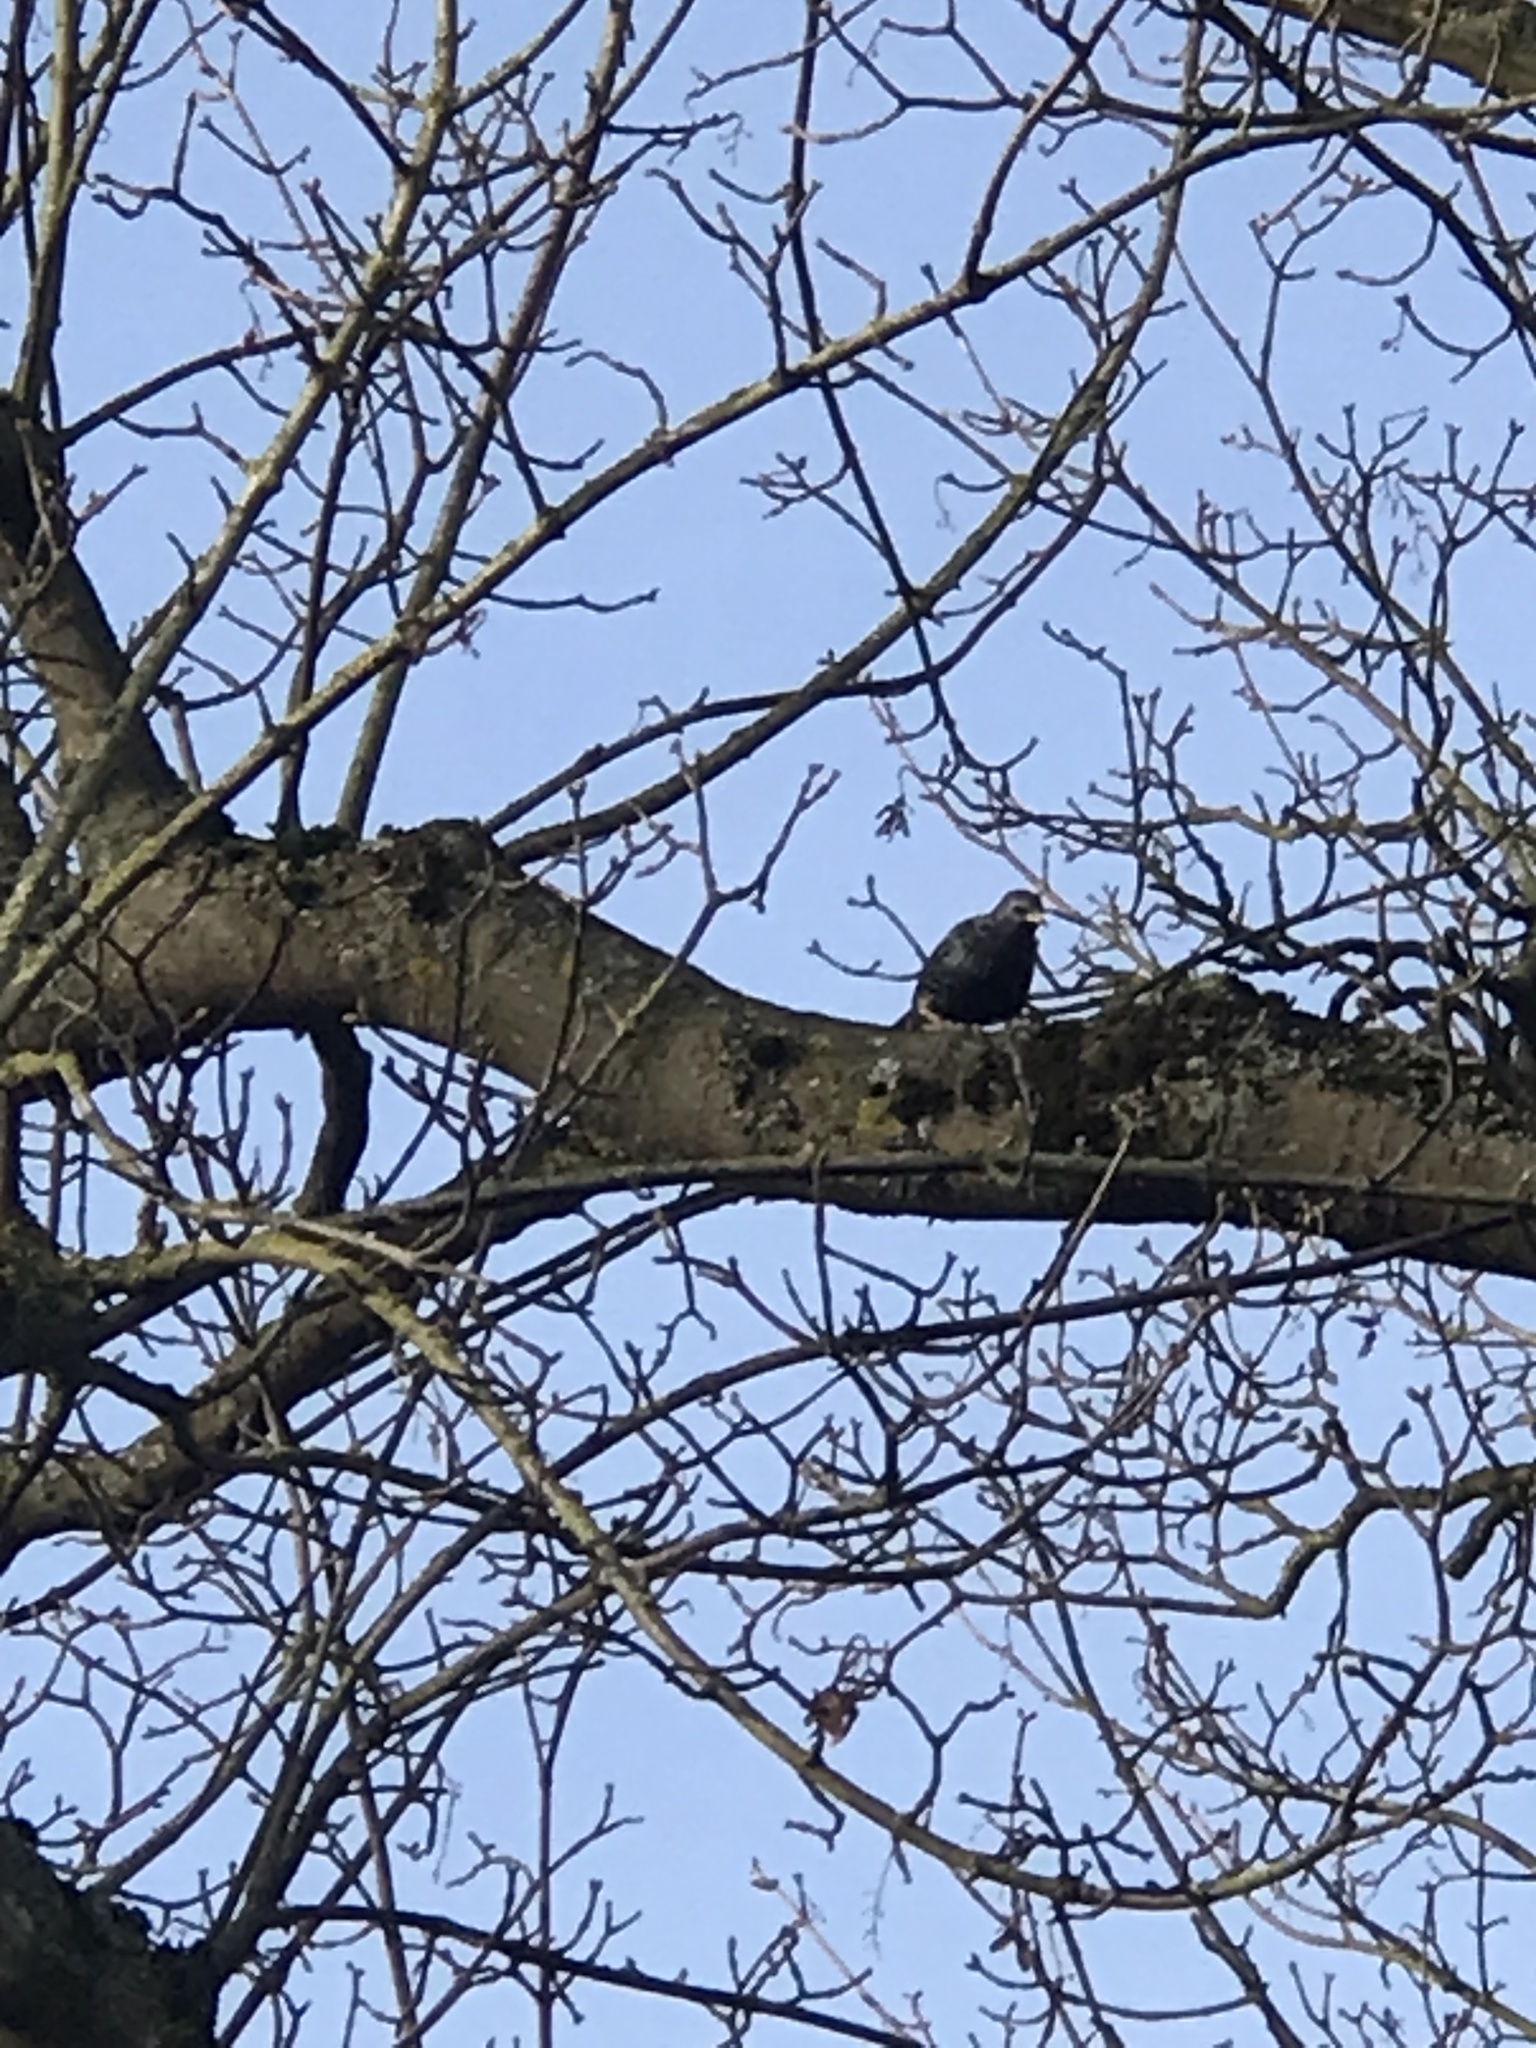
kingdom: Animalia
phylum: Chordata
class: Aves
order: Passeriformes
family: Sturnidae
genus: Sturnus
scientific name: Sturnus vulgaris
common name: Common starling
